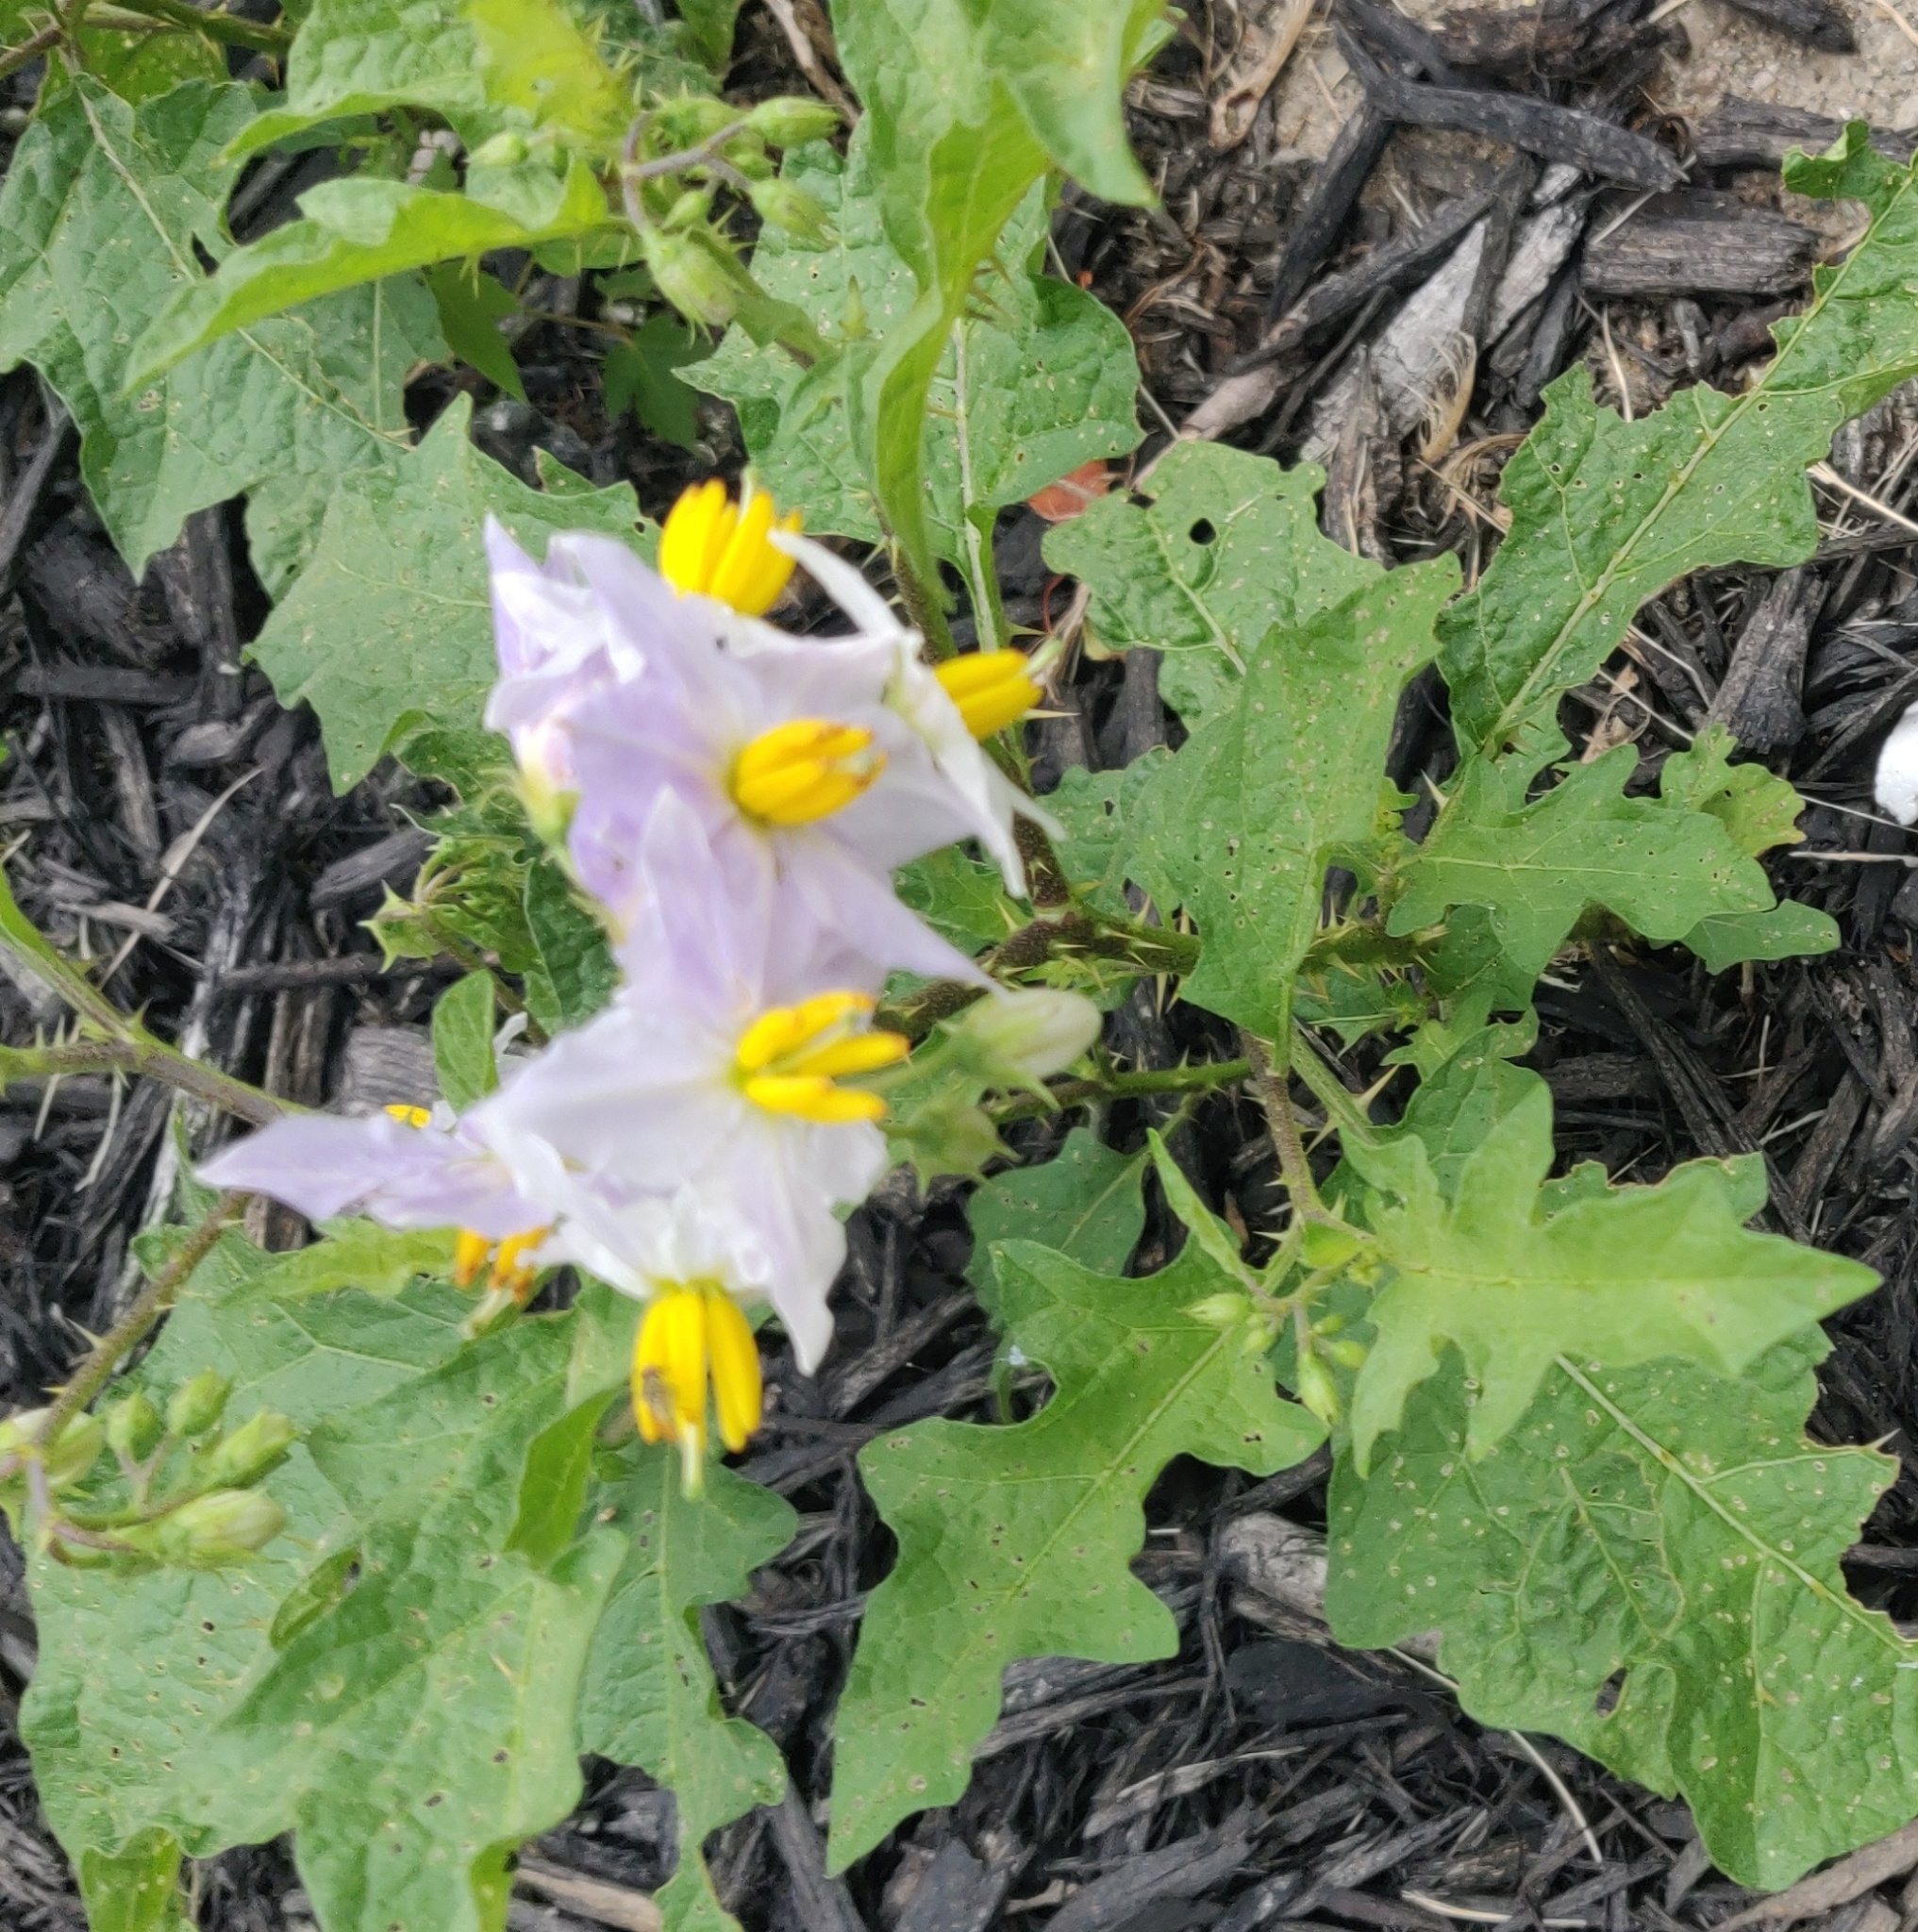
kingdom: Plantae
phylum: Tracheophyta
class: Magnoliopsida
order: Solanales
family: Solanaceae
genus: Solanum
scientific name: Solanum carolinense
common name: Horse-nettle
